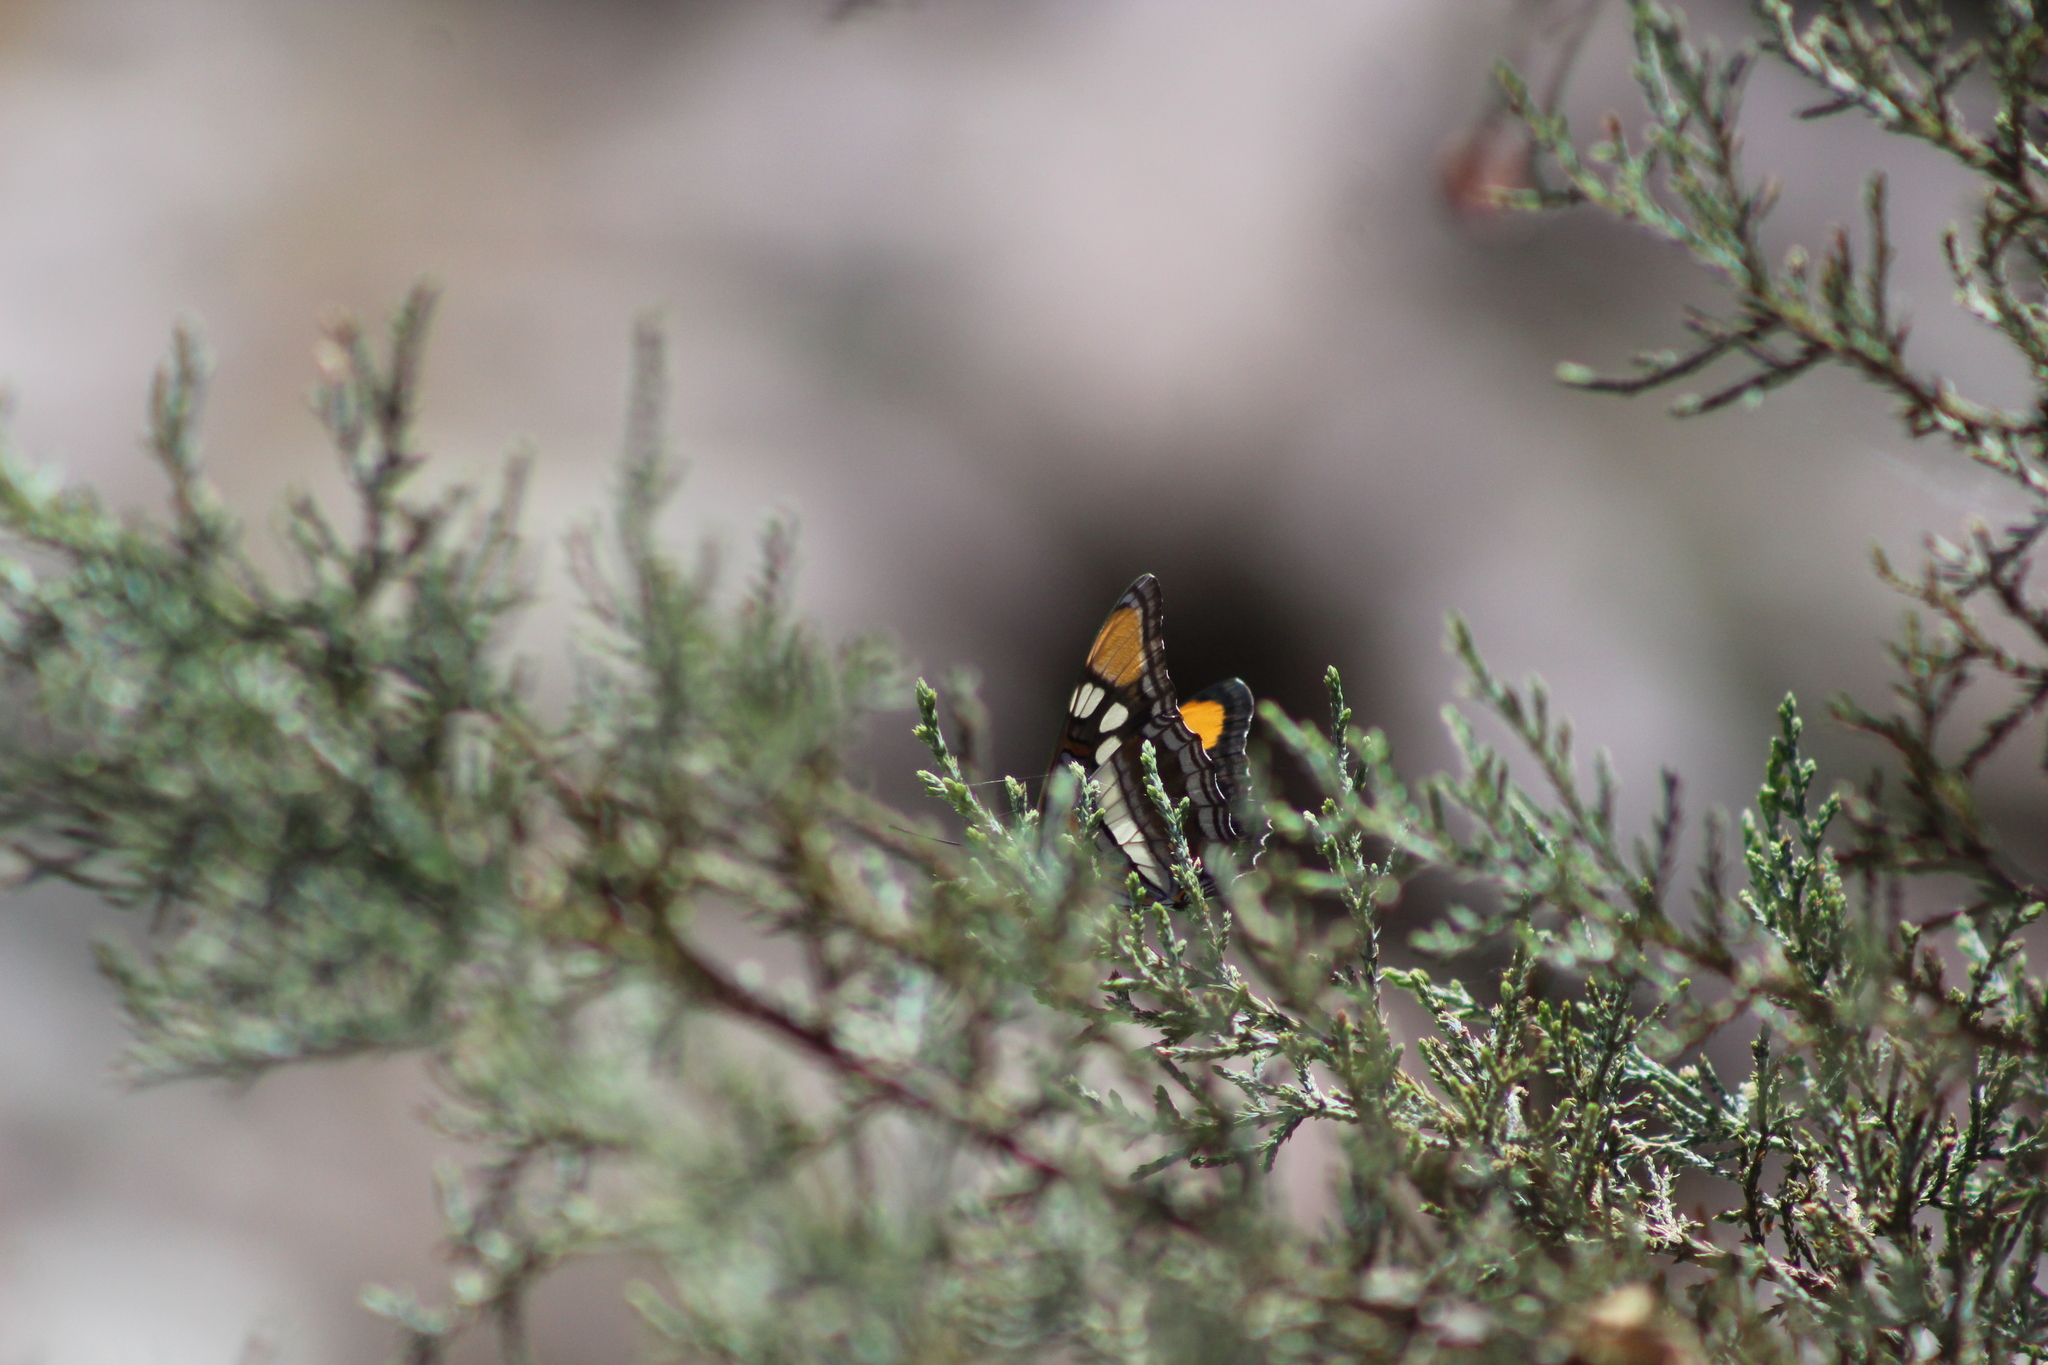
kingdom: Animalia
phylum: Arthropoda
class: Insecta
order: Lepidoptera
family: Nymphalidae
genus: Limenitis
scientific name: Limenitis bredowii
